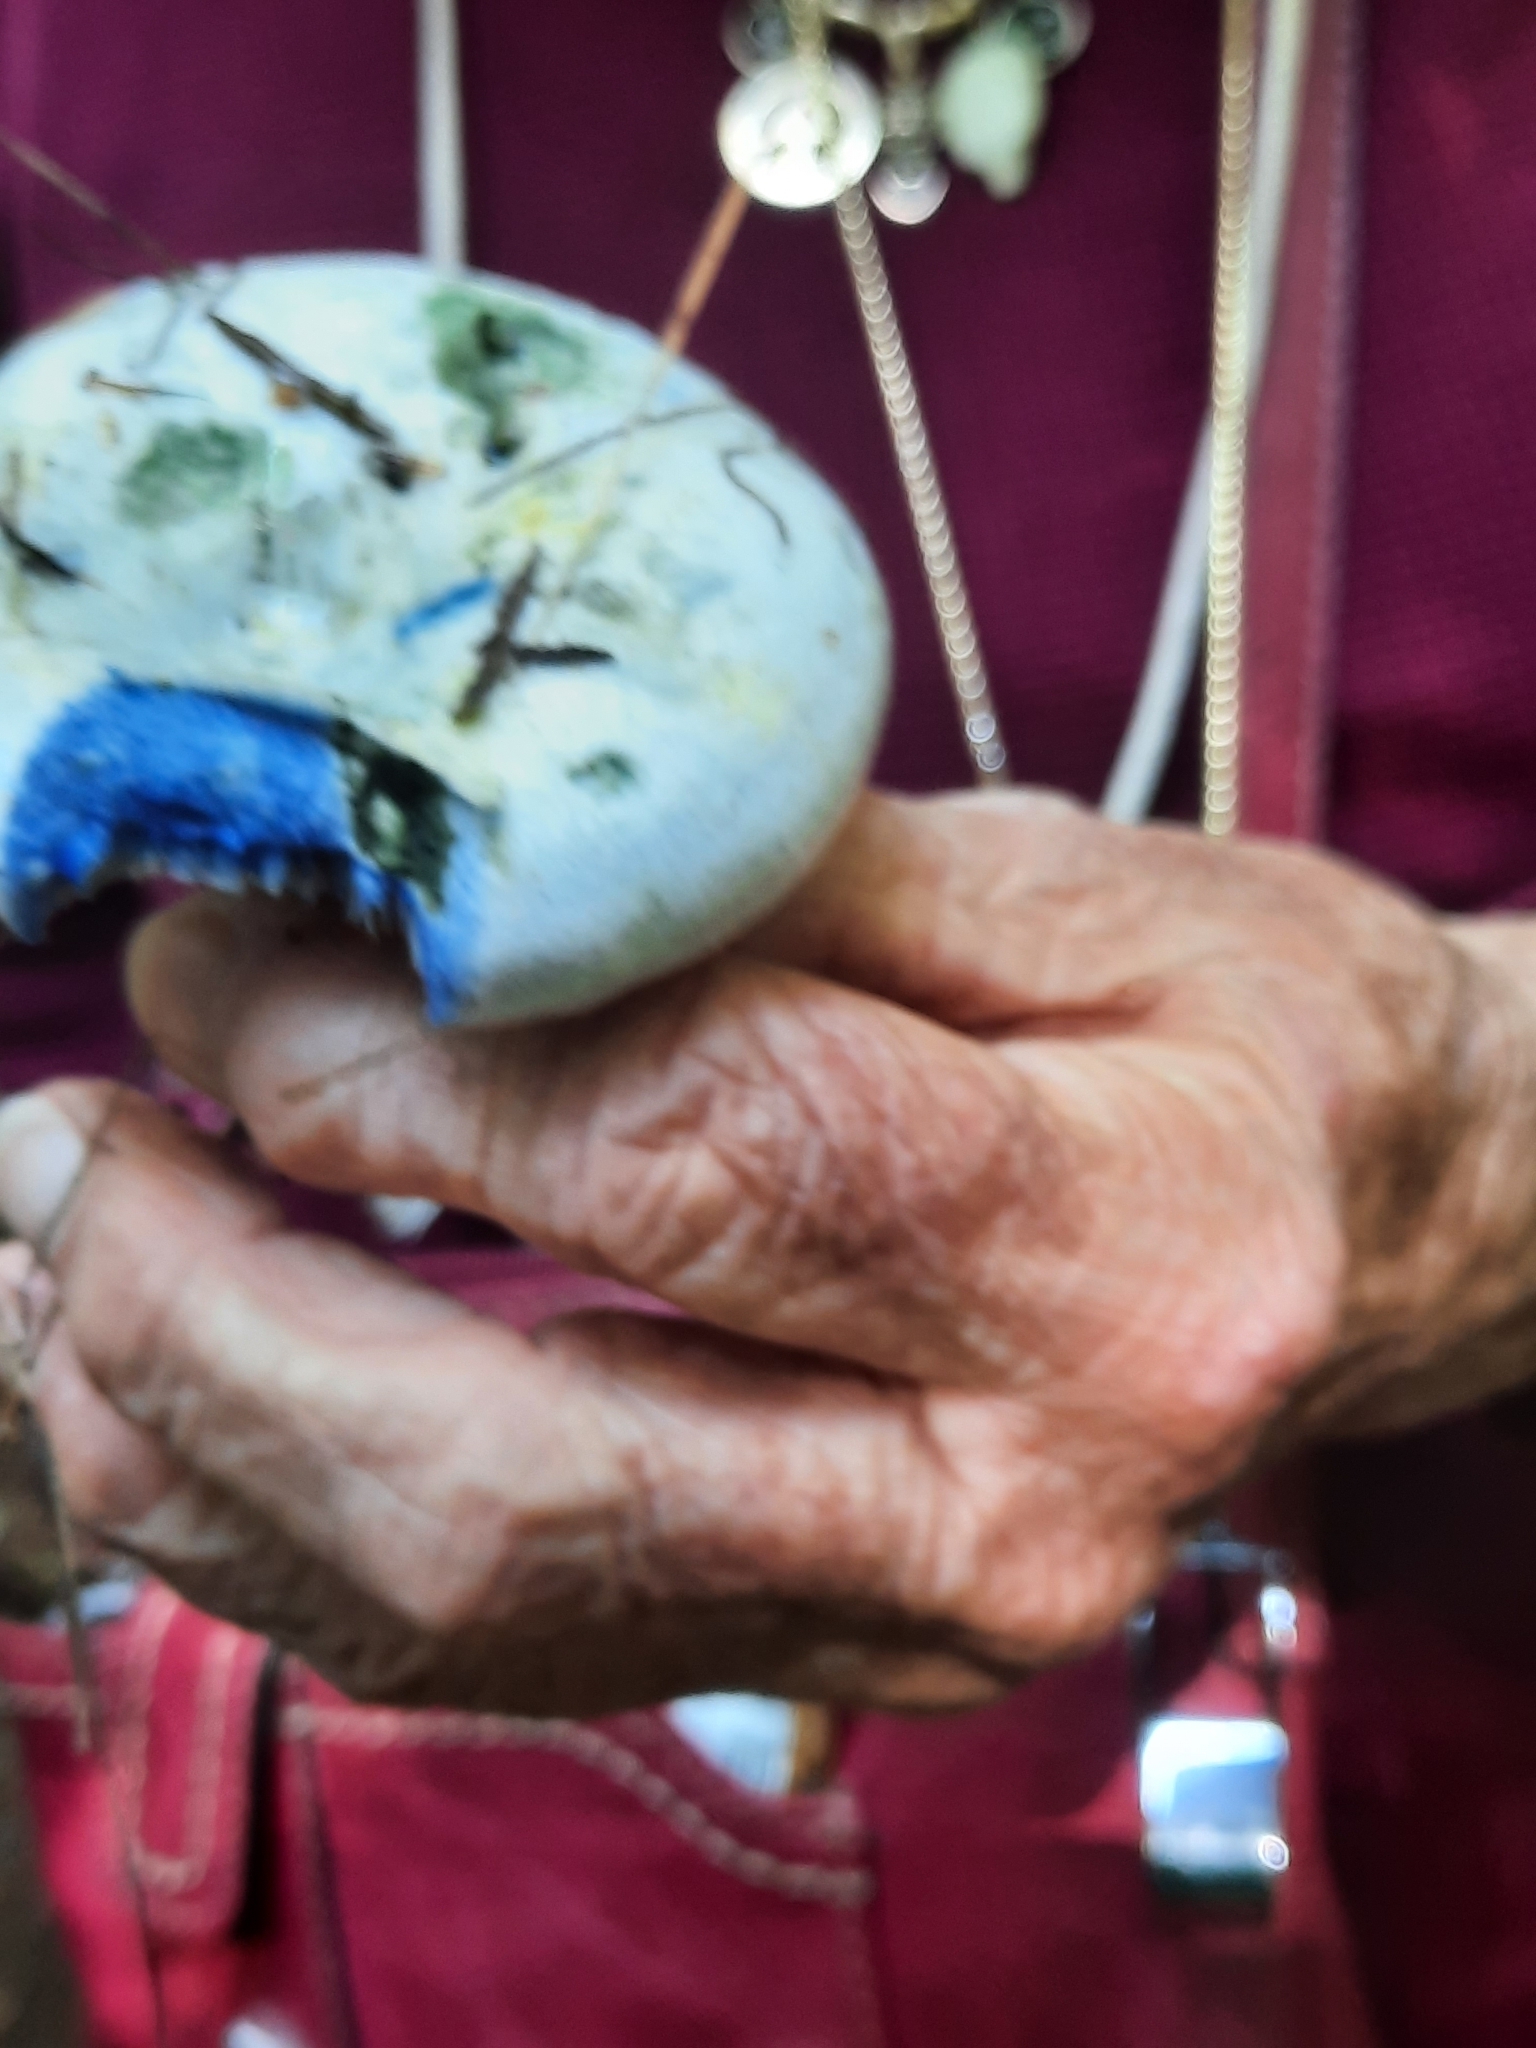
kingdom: Fungi
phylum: Basidiomycota
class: Agaricomycetes
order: Russulales
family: Russulaceae
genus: Lactarius
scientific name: Lactarius indigo
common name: Indigo milk cap
